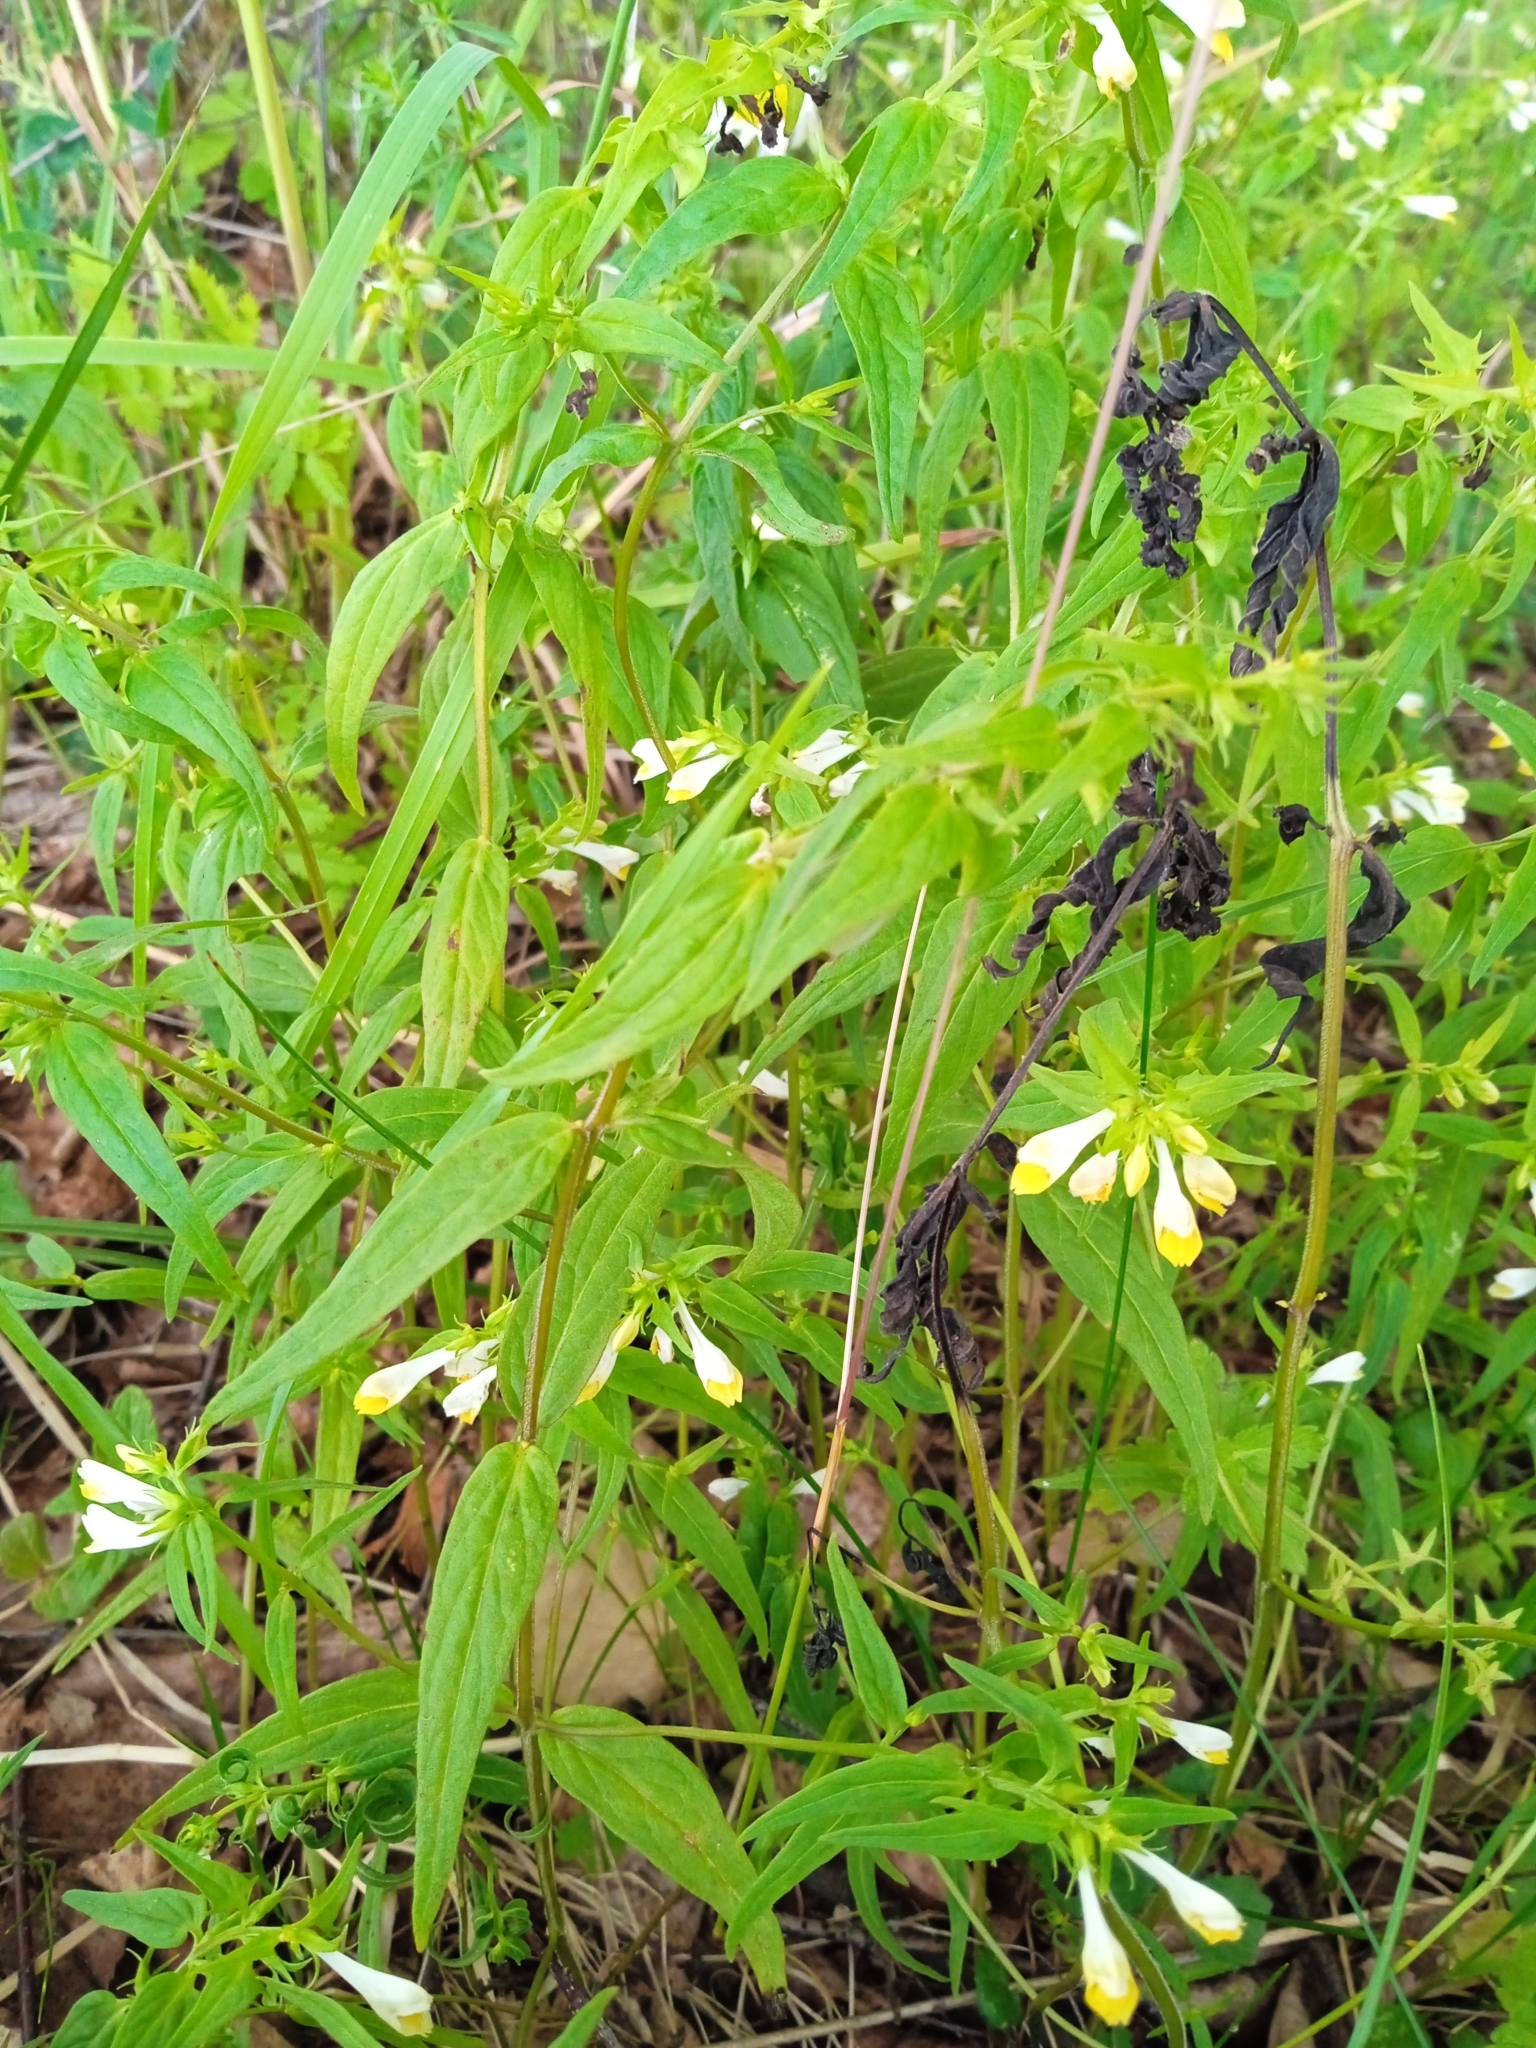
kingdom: Plantae
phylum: Tracheophyta
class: Magnoliopsida
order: Lamiales
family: Orobanchaceae
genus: Melampyrum
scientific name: Melampyrum pratense
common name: Common cow-wheat
